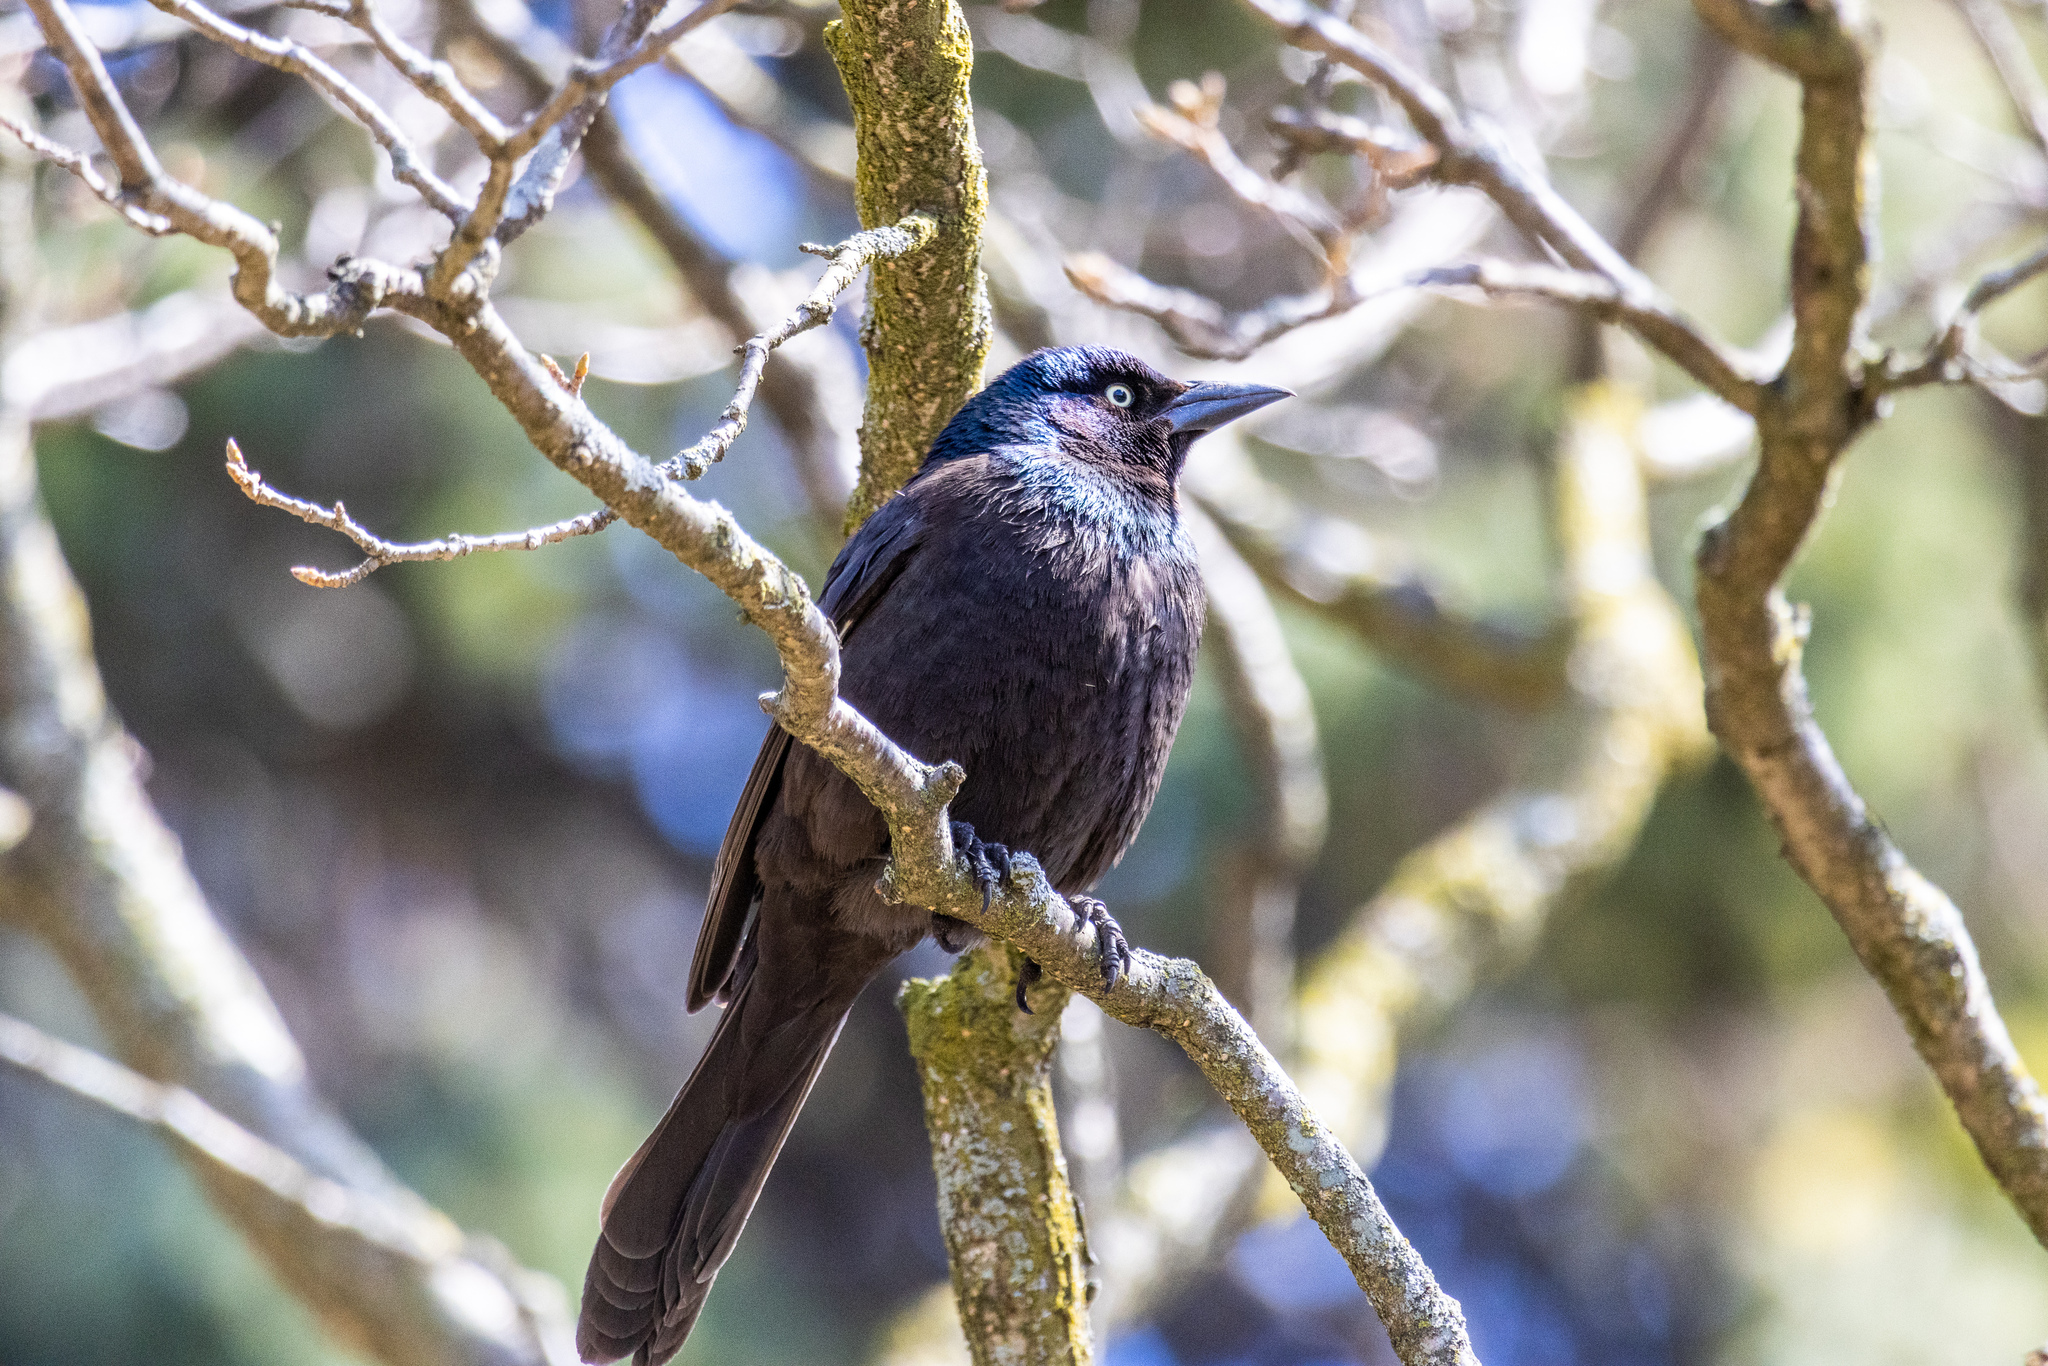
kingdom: Animalia
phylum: Chordata
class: Aves
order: Passeriformes
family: Icteridae
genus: Quiscalus
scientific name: Quiscalus quiscula
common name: Common grackle
